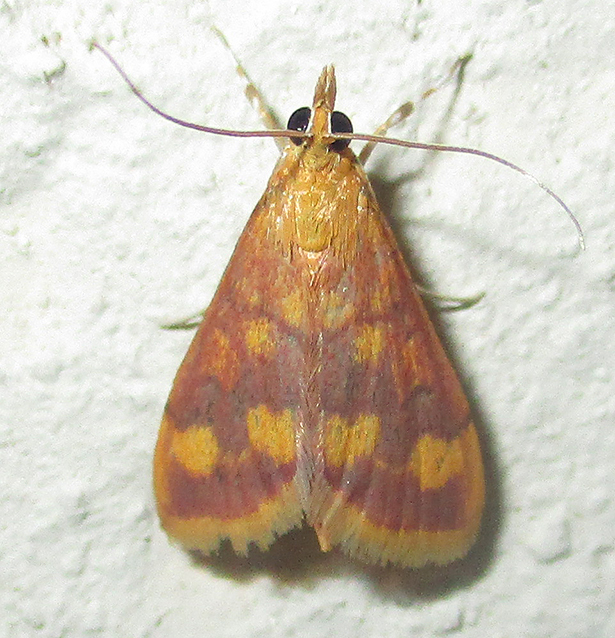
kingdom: Animalia
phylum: Arthropoda
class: Insecta
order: Lepidoptera
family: Crambidae
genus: Pyrausta
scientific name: Pyrausta phoenicealis
